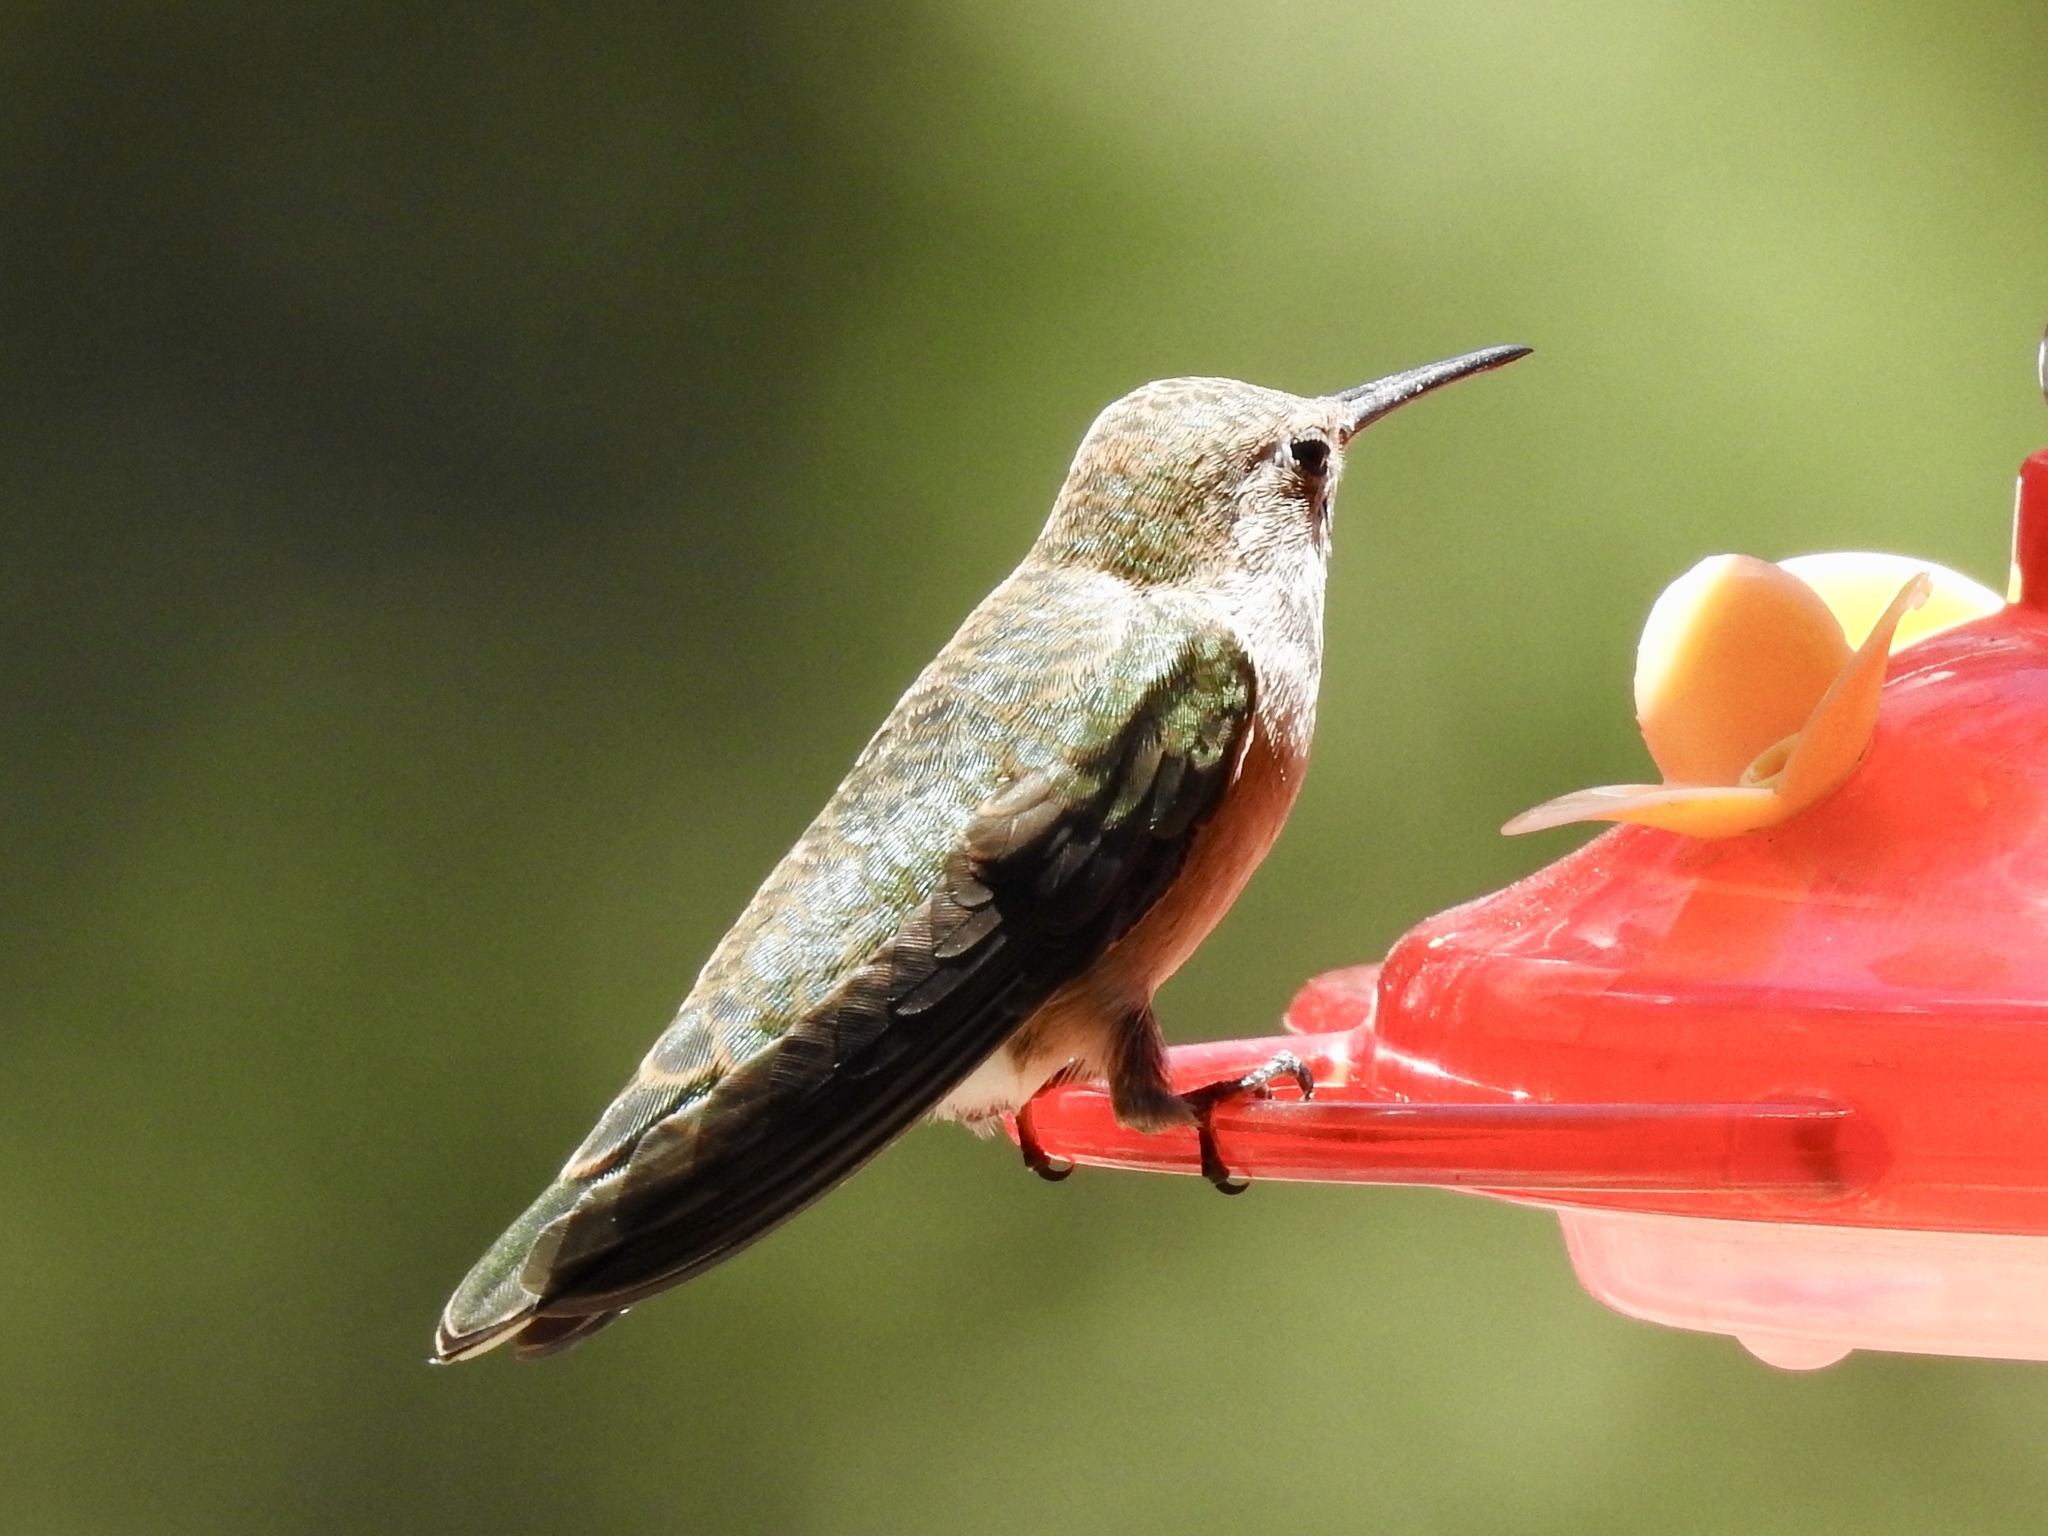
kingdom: Animalia
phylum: Chordata
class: Aves
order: Apodiformes
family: Trochilidae
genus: Selasphorus
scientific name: Selasphorus platycercus
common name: Broad-tailed hummingbird
